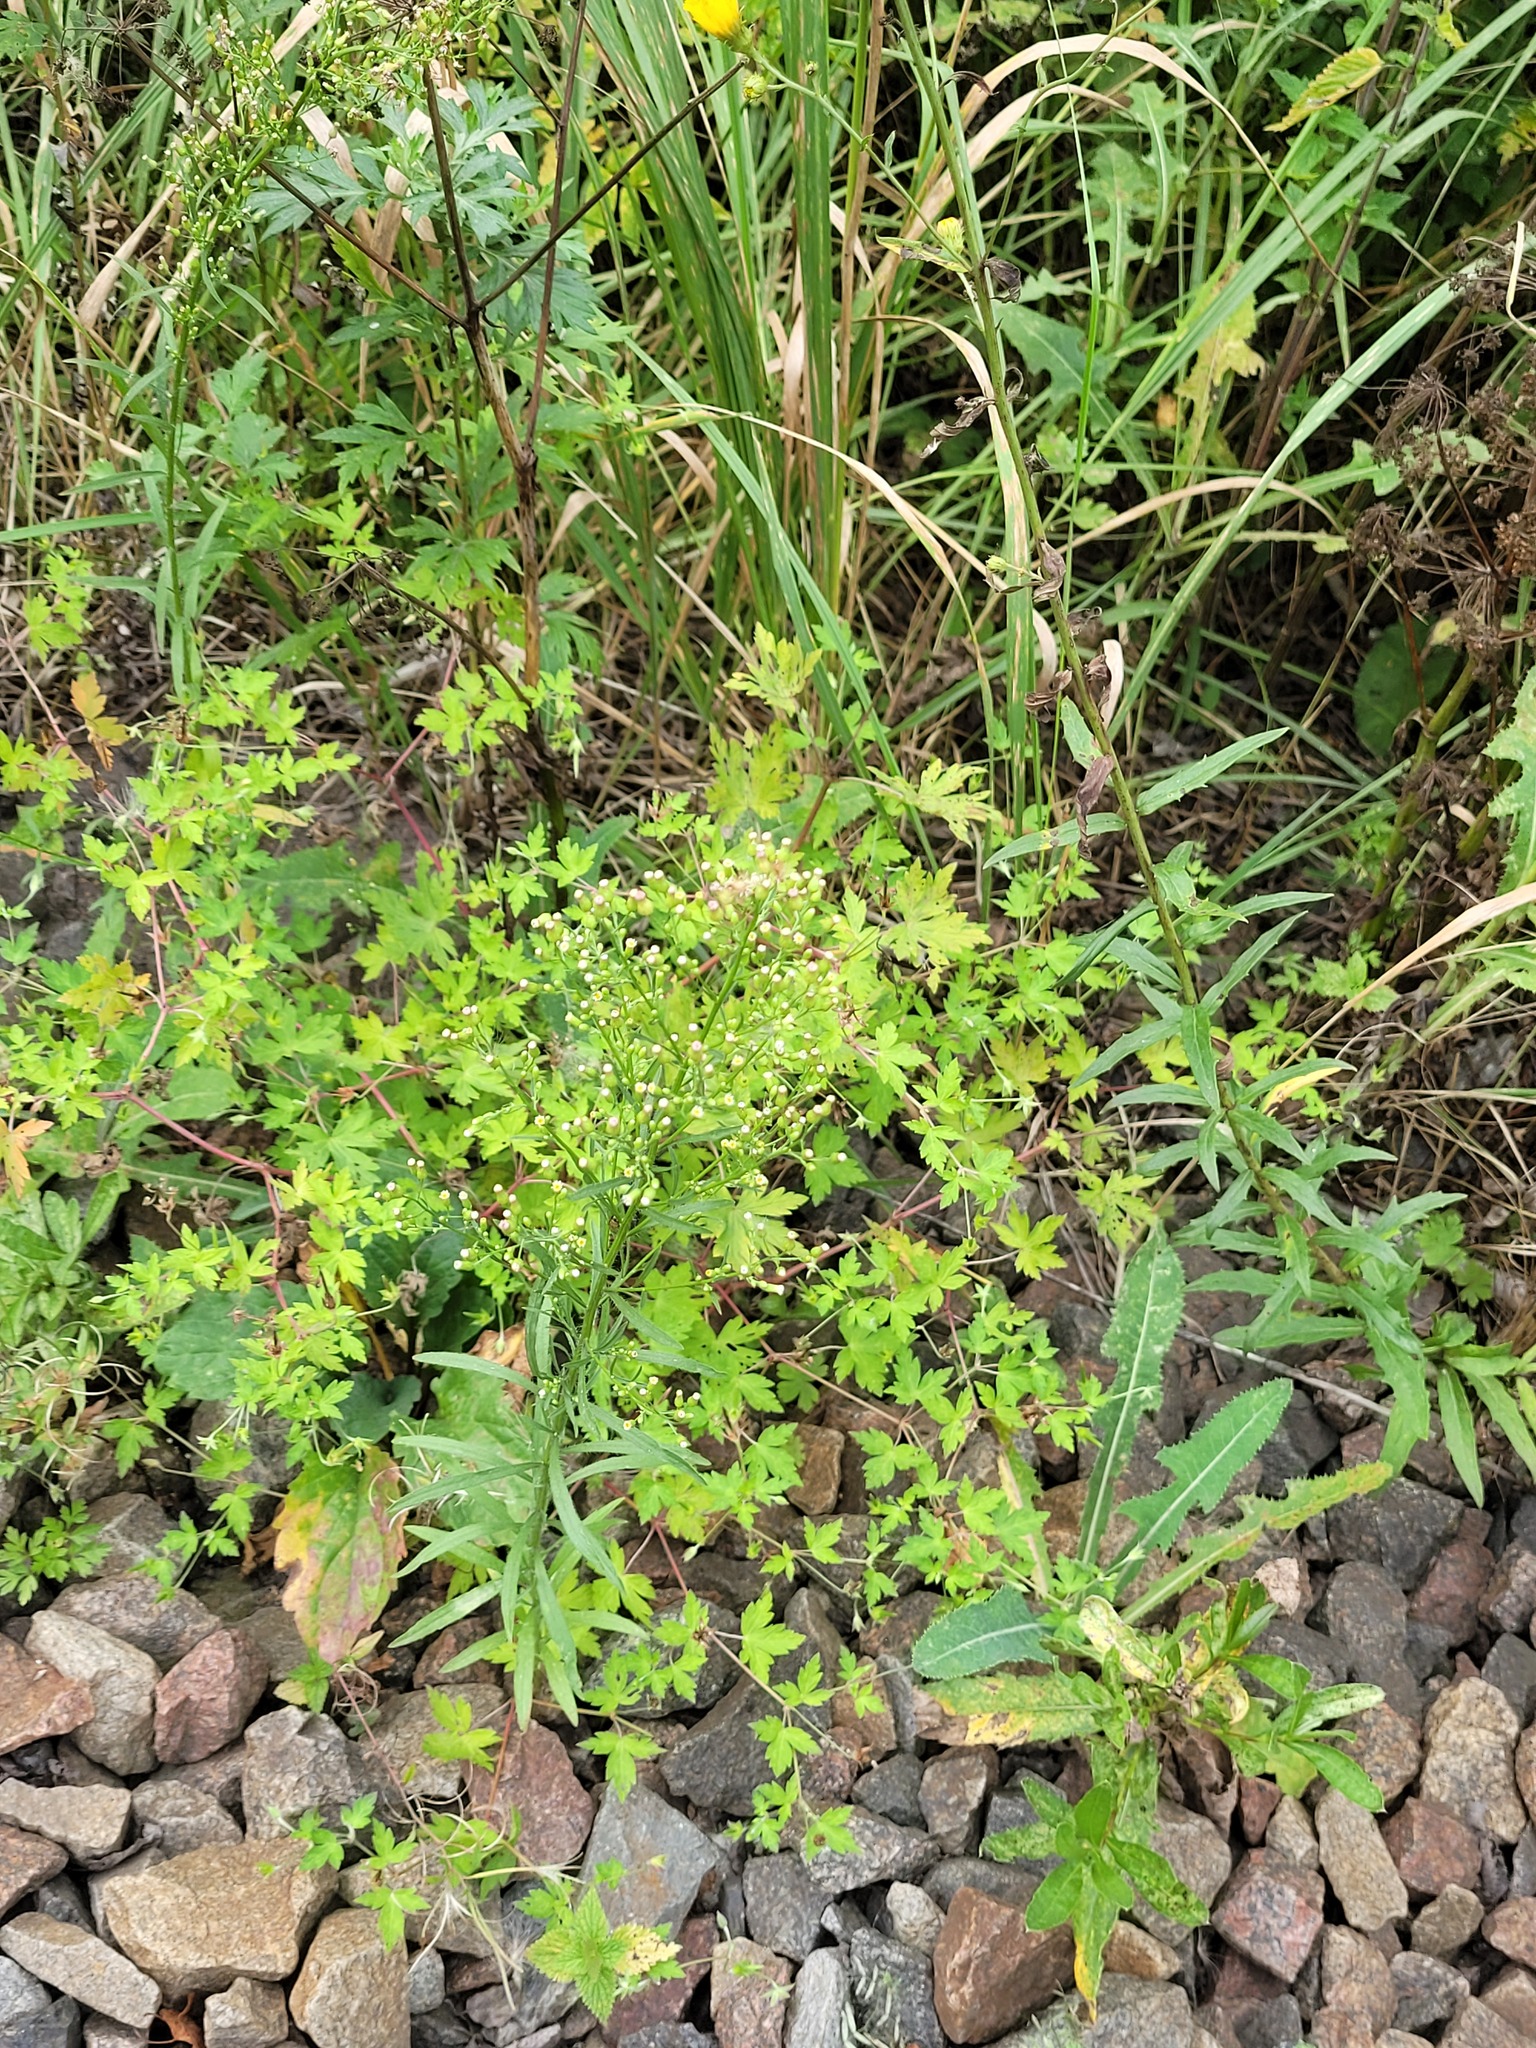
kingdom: Plantae
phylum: Tracheophyta
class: Magnoliopsida
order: Asterales
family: Asteraceae
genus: Erigeron
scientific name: Erigeron canadensis
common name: Canadian fleabane
